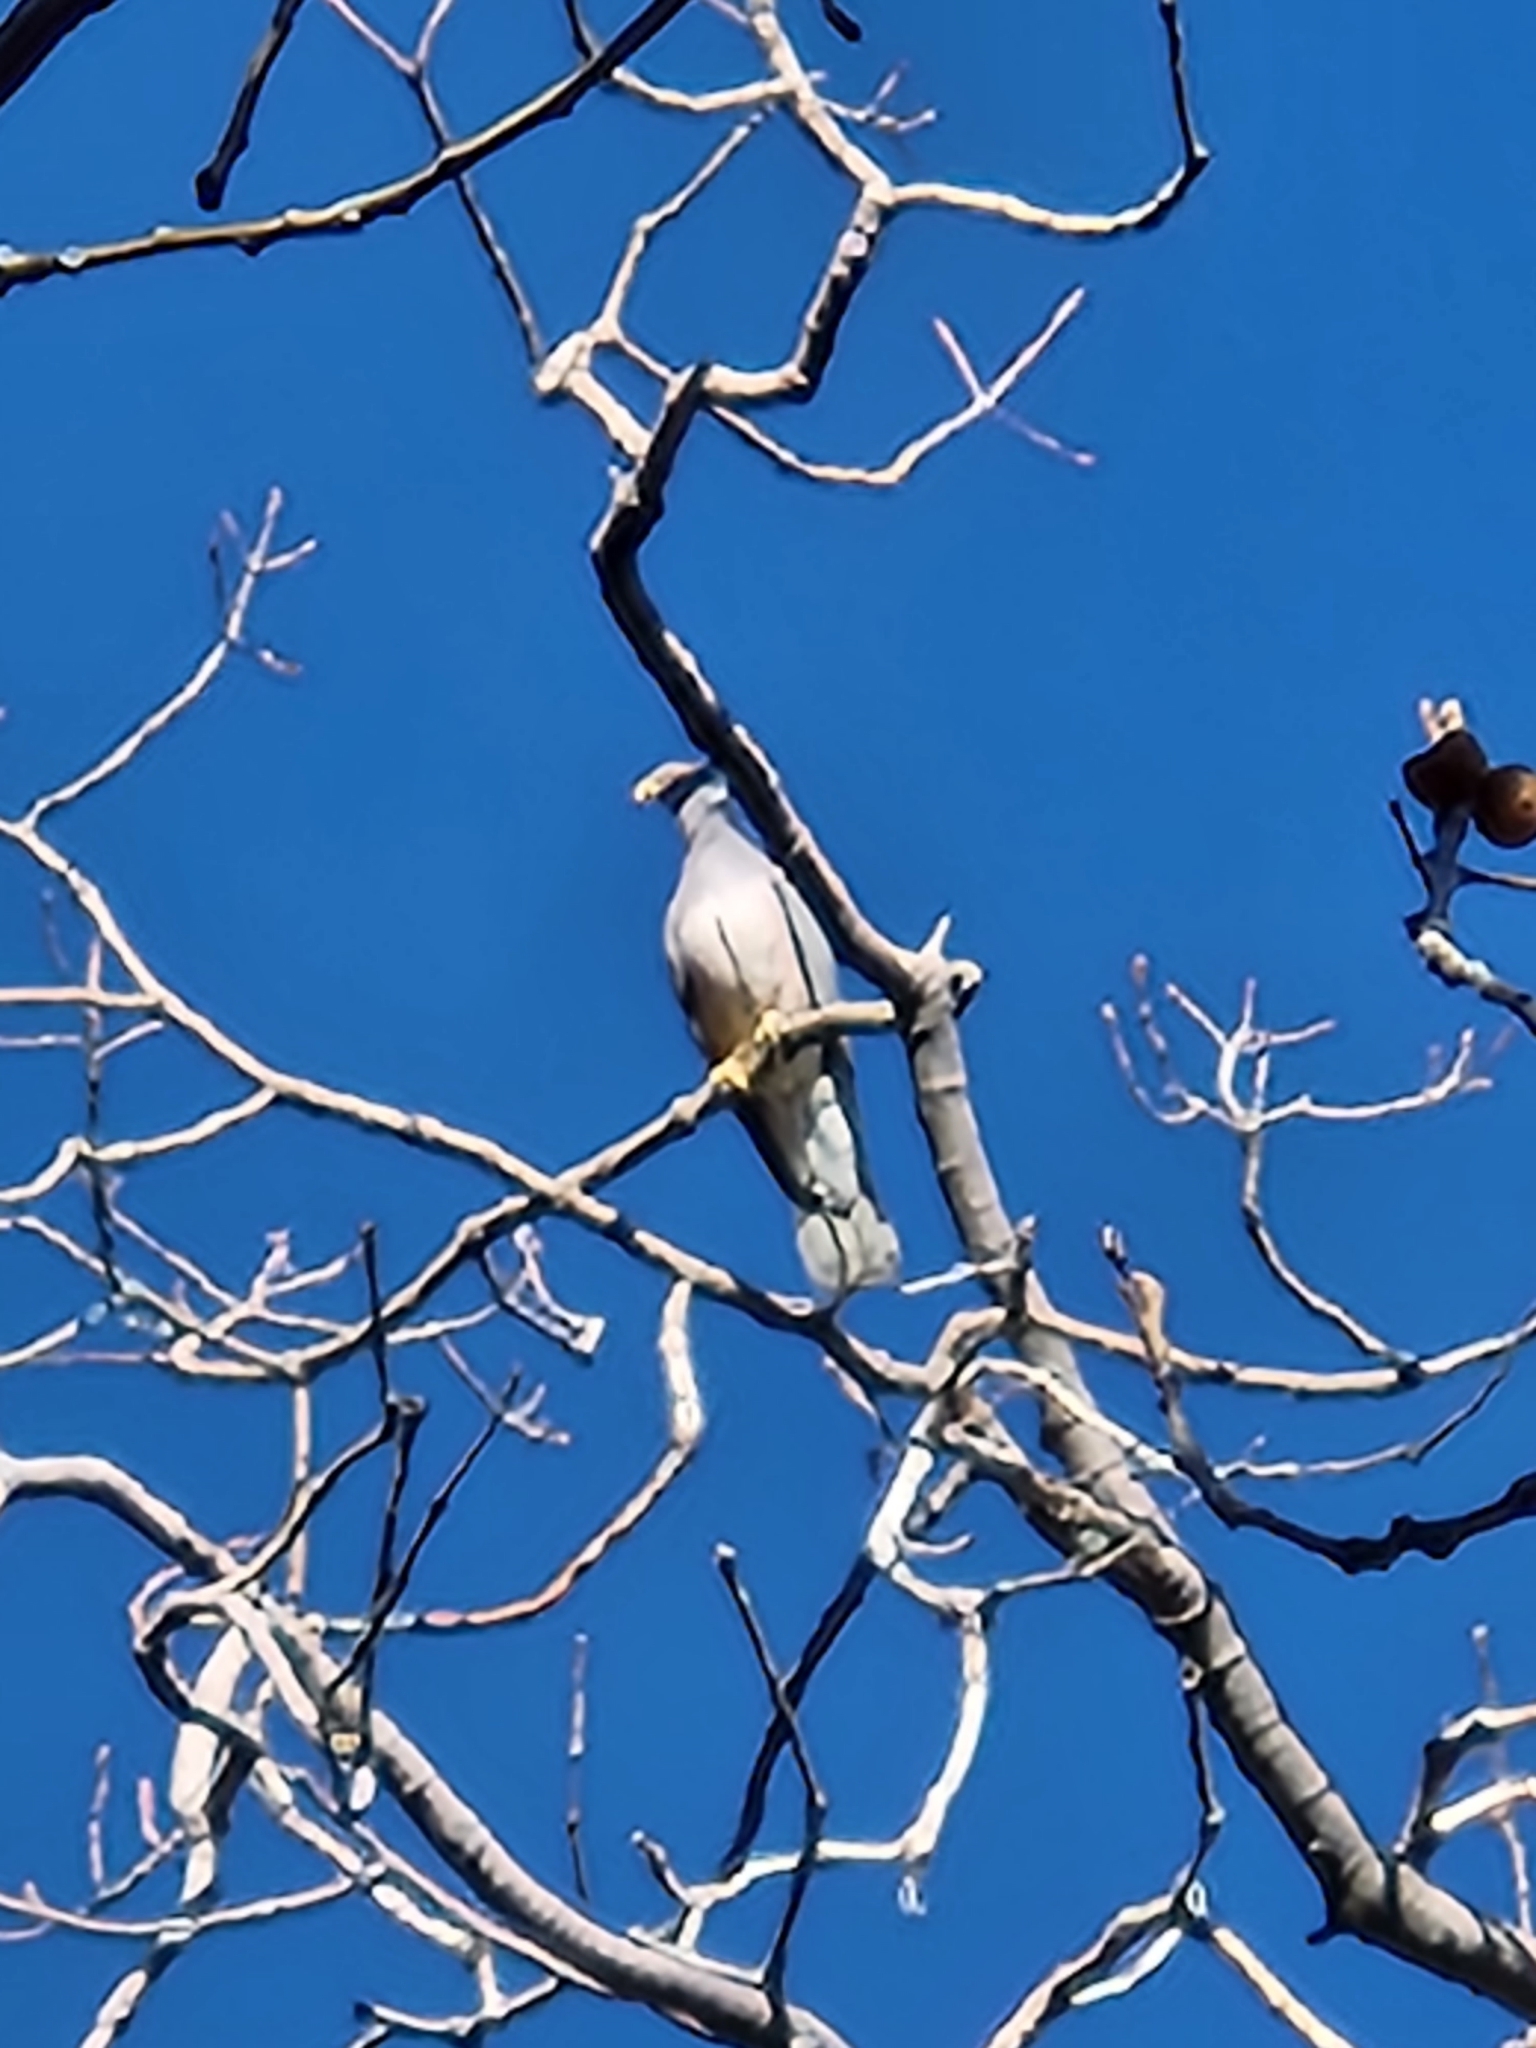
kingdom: Animalia
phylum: Chordata
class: Aves
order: Columbiformes
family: Columbidae
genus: Patagioenas
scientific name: Patagioenas fasciata
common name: Band-tailed pigeon
